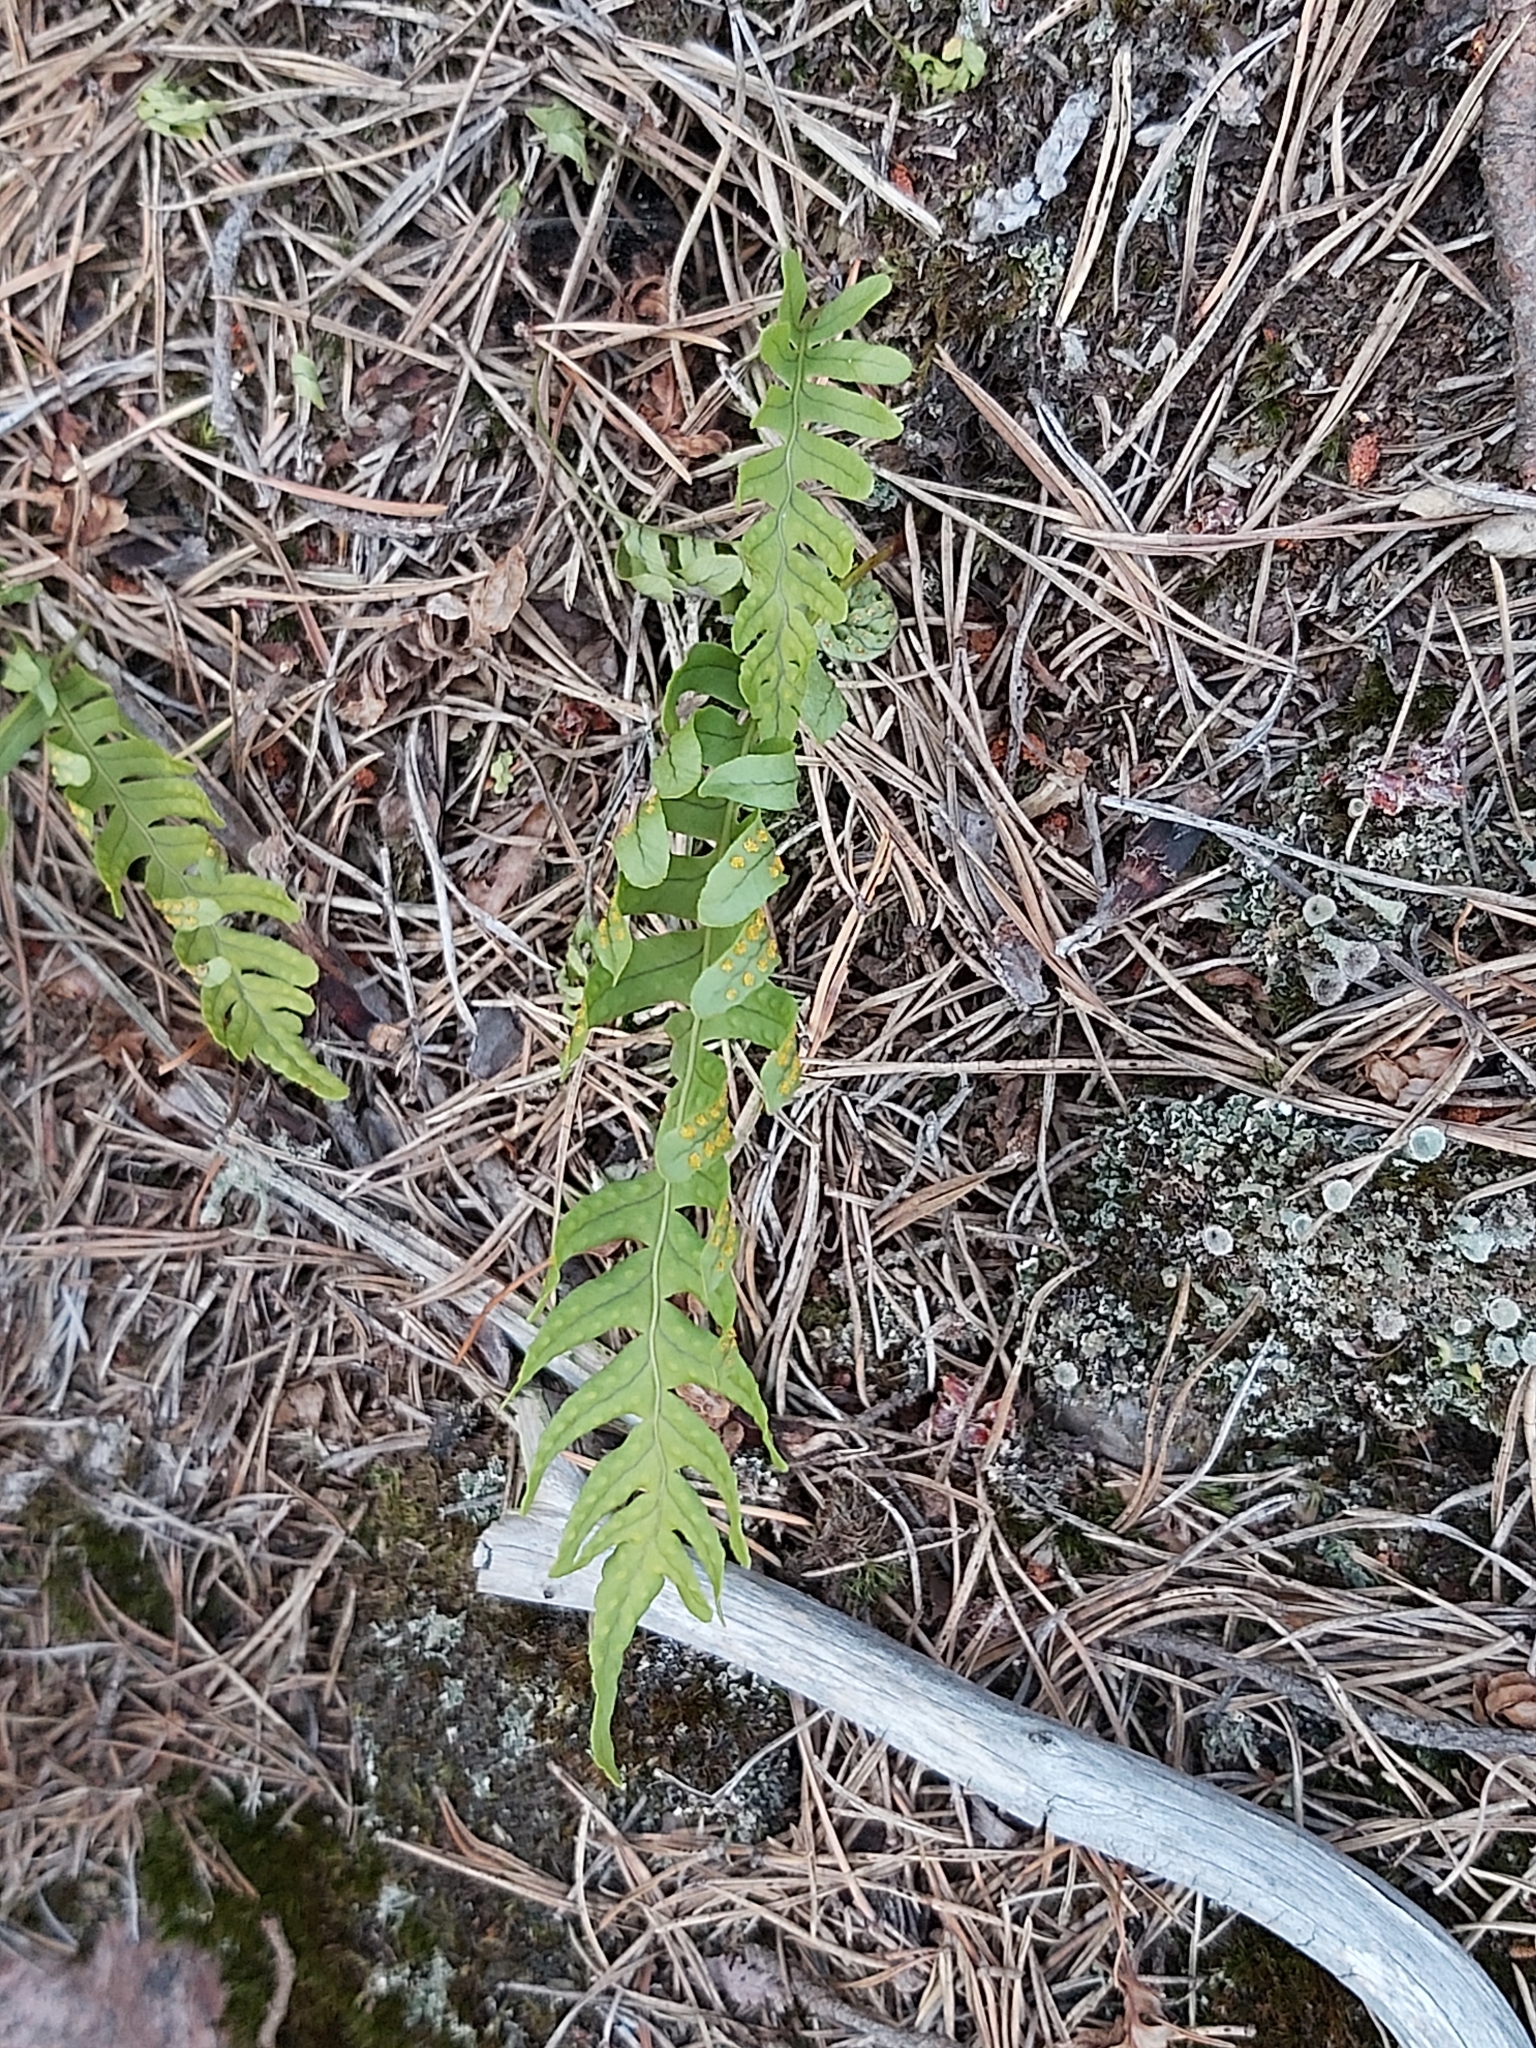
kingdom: Plantae
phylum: Tracheophyta
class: Polypodiopsida
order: Polypodiales
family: Polypodiaceae
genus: Polypodium
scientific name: Polypodium vulgare
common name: Common polypody
